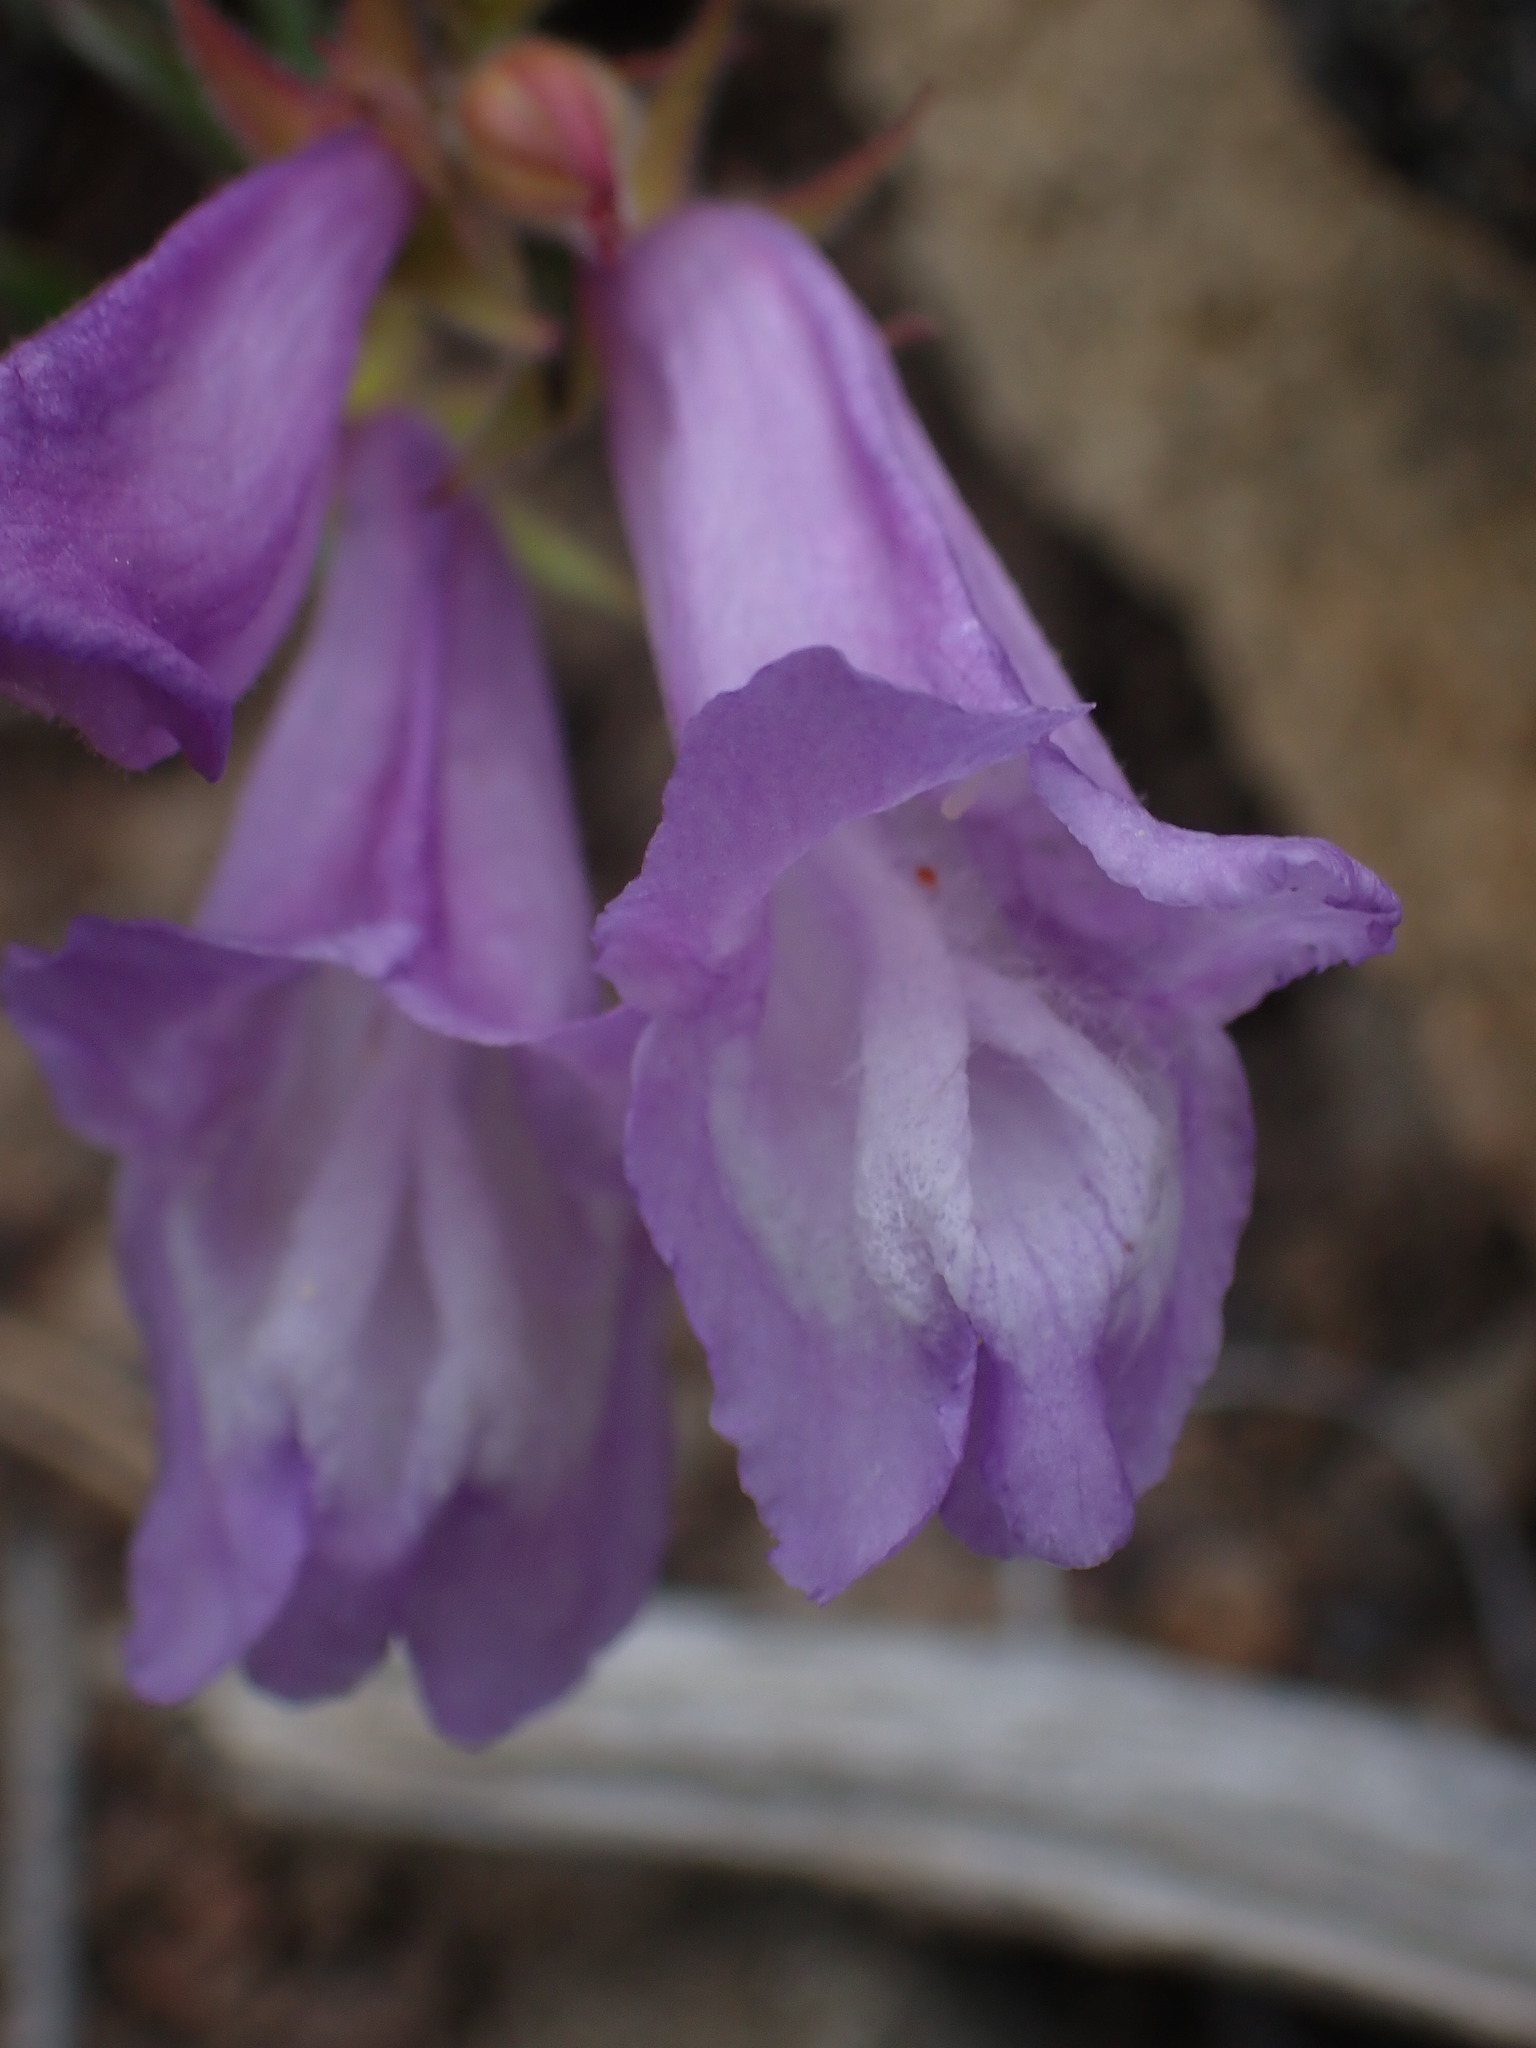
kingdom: Plantae
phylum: Tracheophyta
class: Magnoliopsida
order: Lamiales
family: Plantaginaceae
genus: Penstemon
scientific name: Penstemon fruticosus
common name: Bush penstemon
